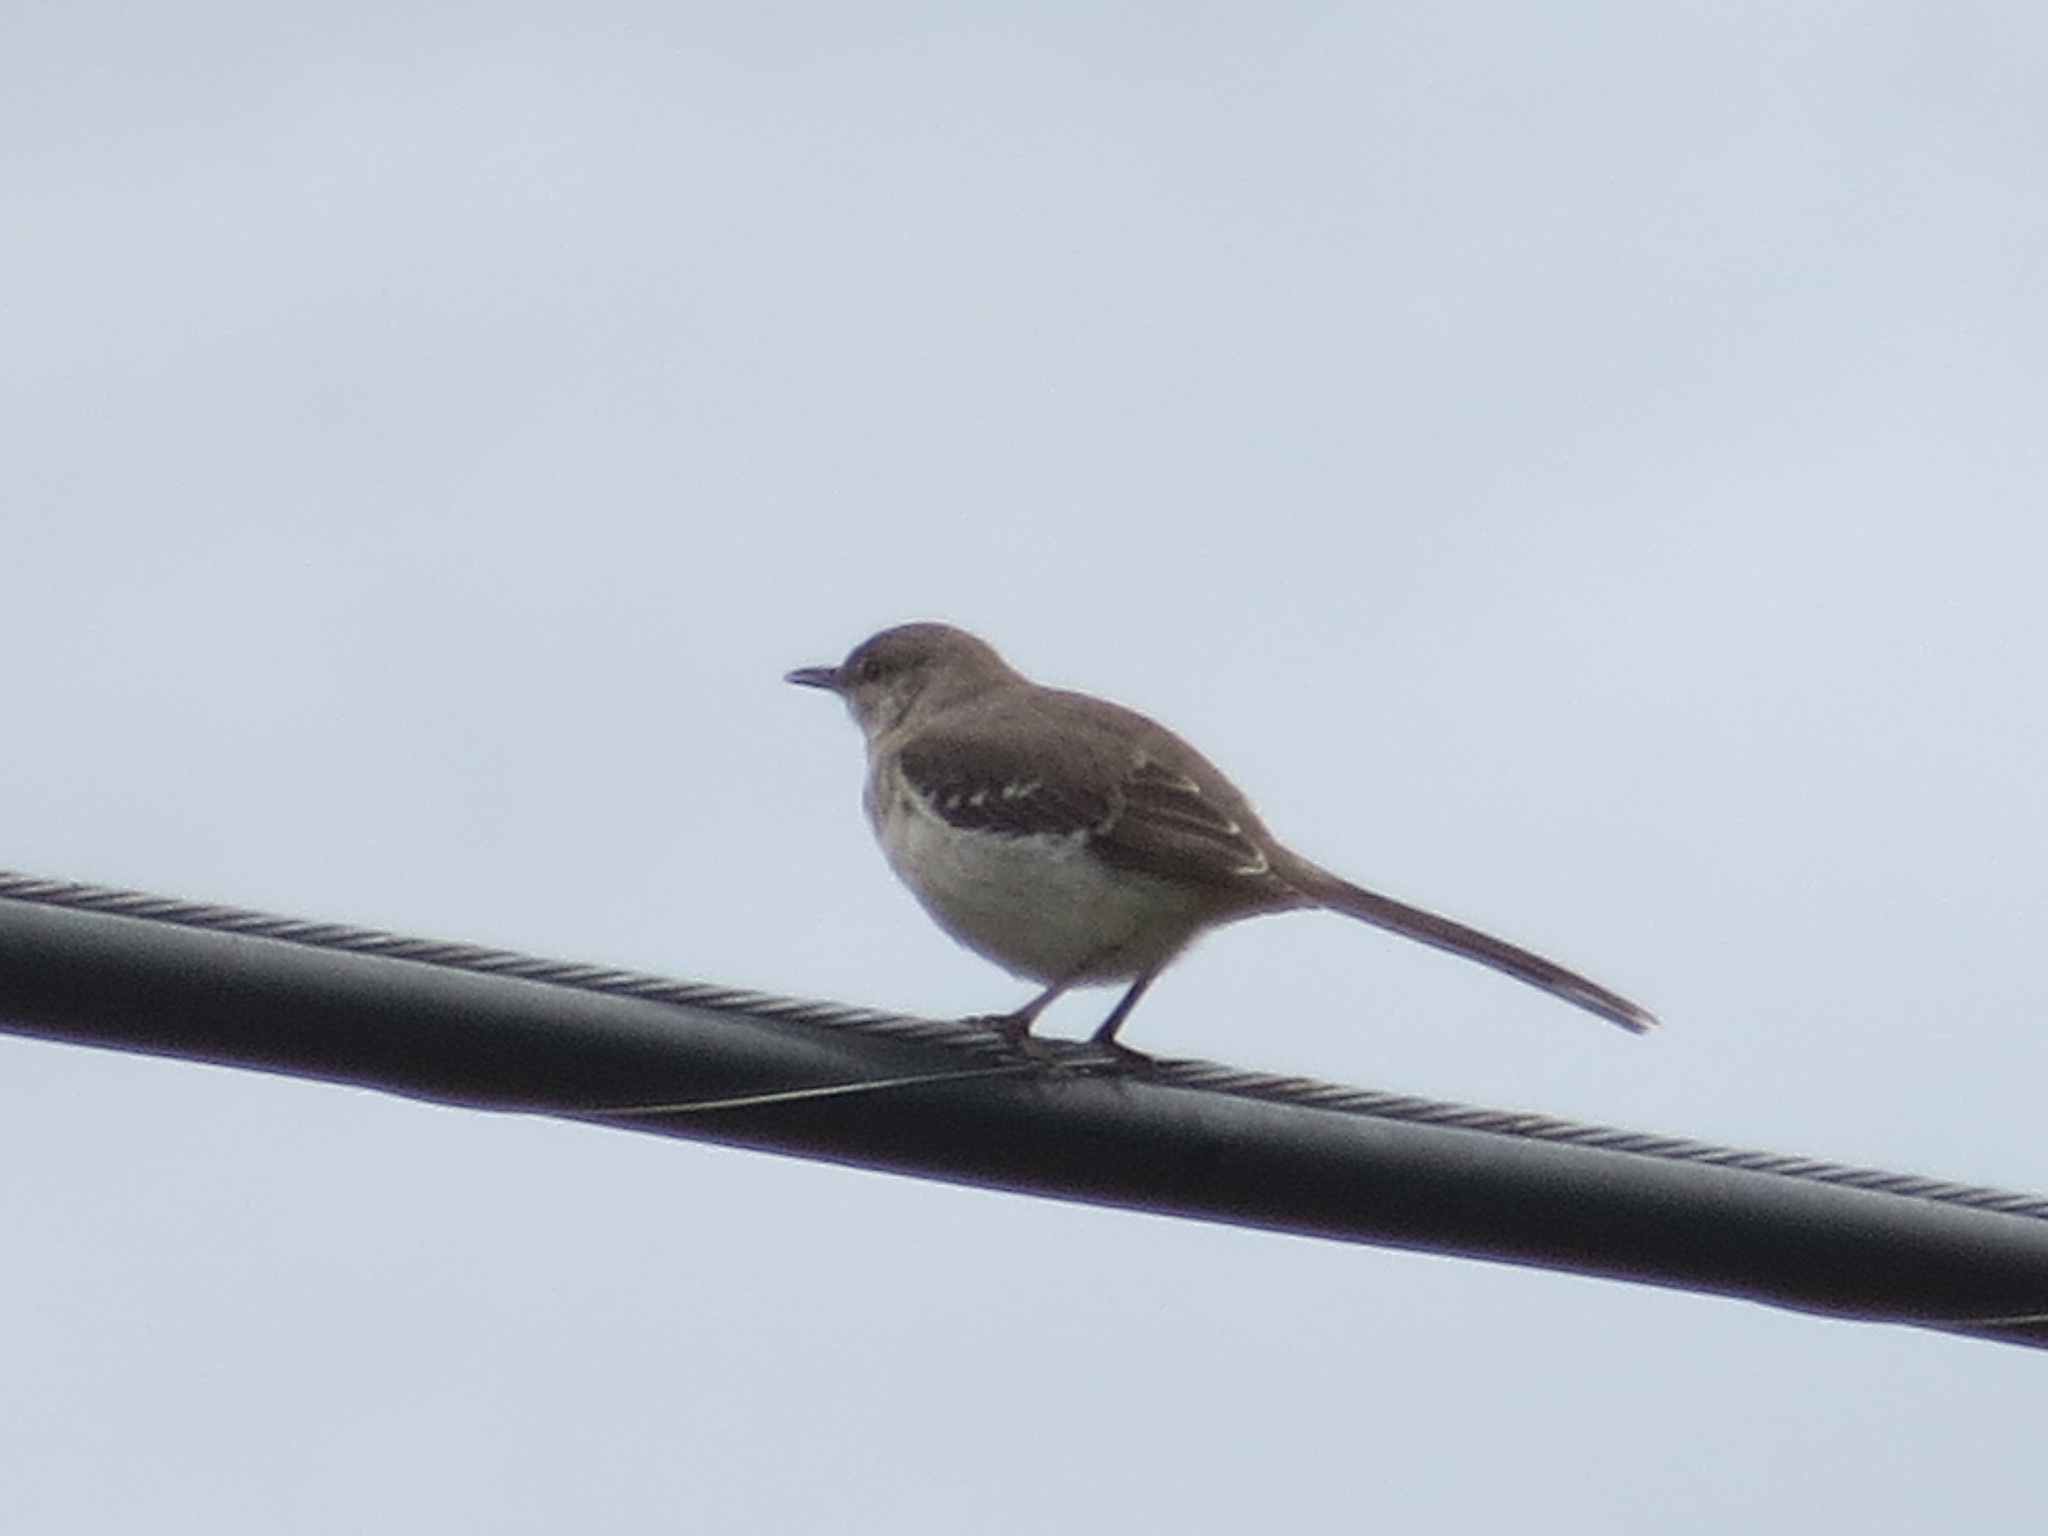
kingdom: Animalia
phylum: Chordata
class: Aves
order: Passeriformes
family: Mimidae
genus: Mimus
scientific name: Mimus polyglottos
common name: Northern mockingbird
